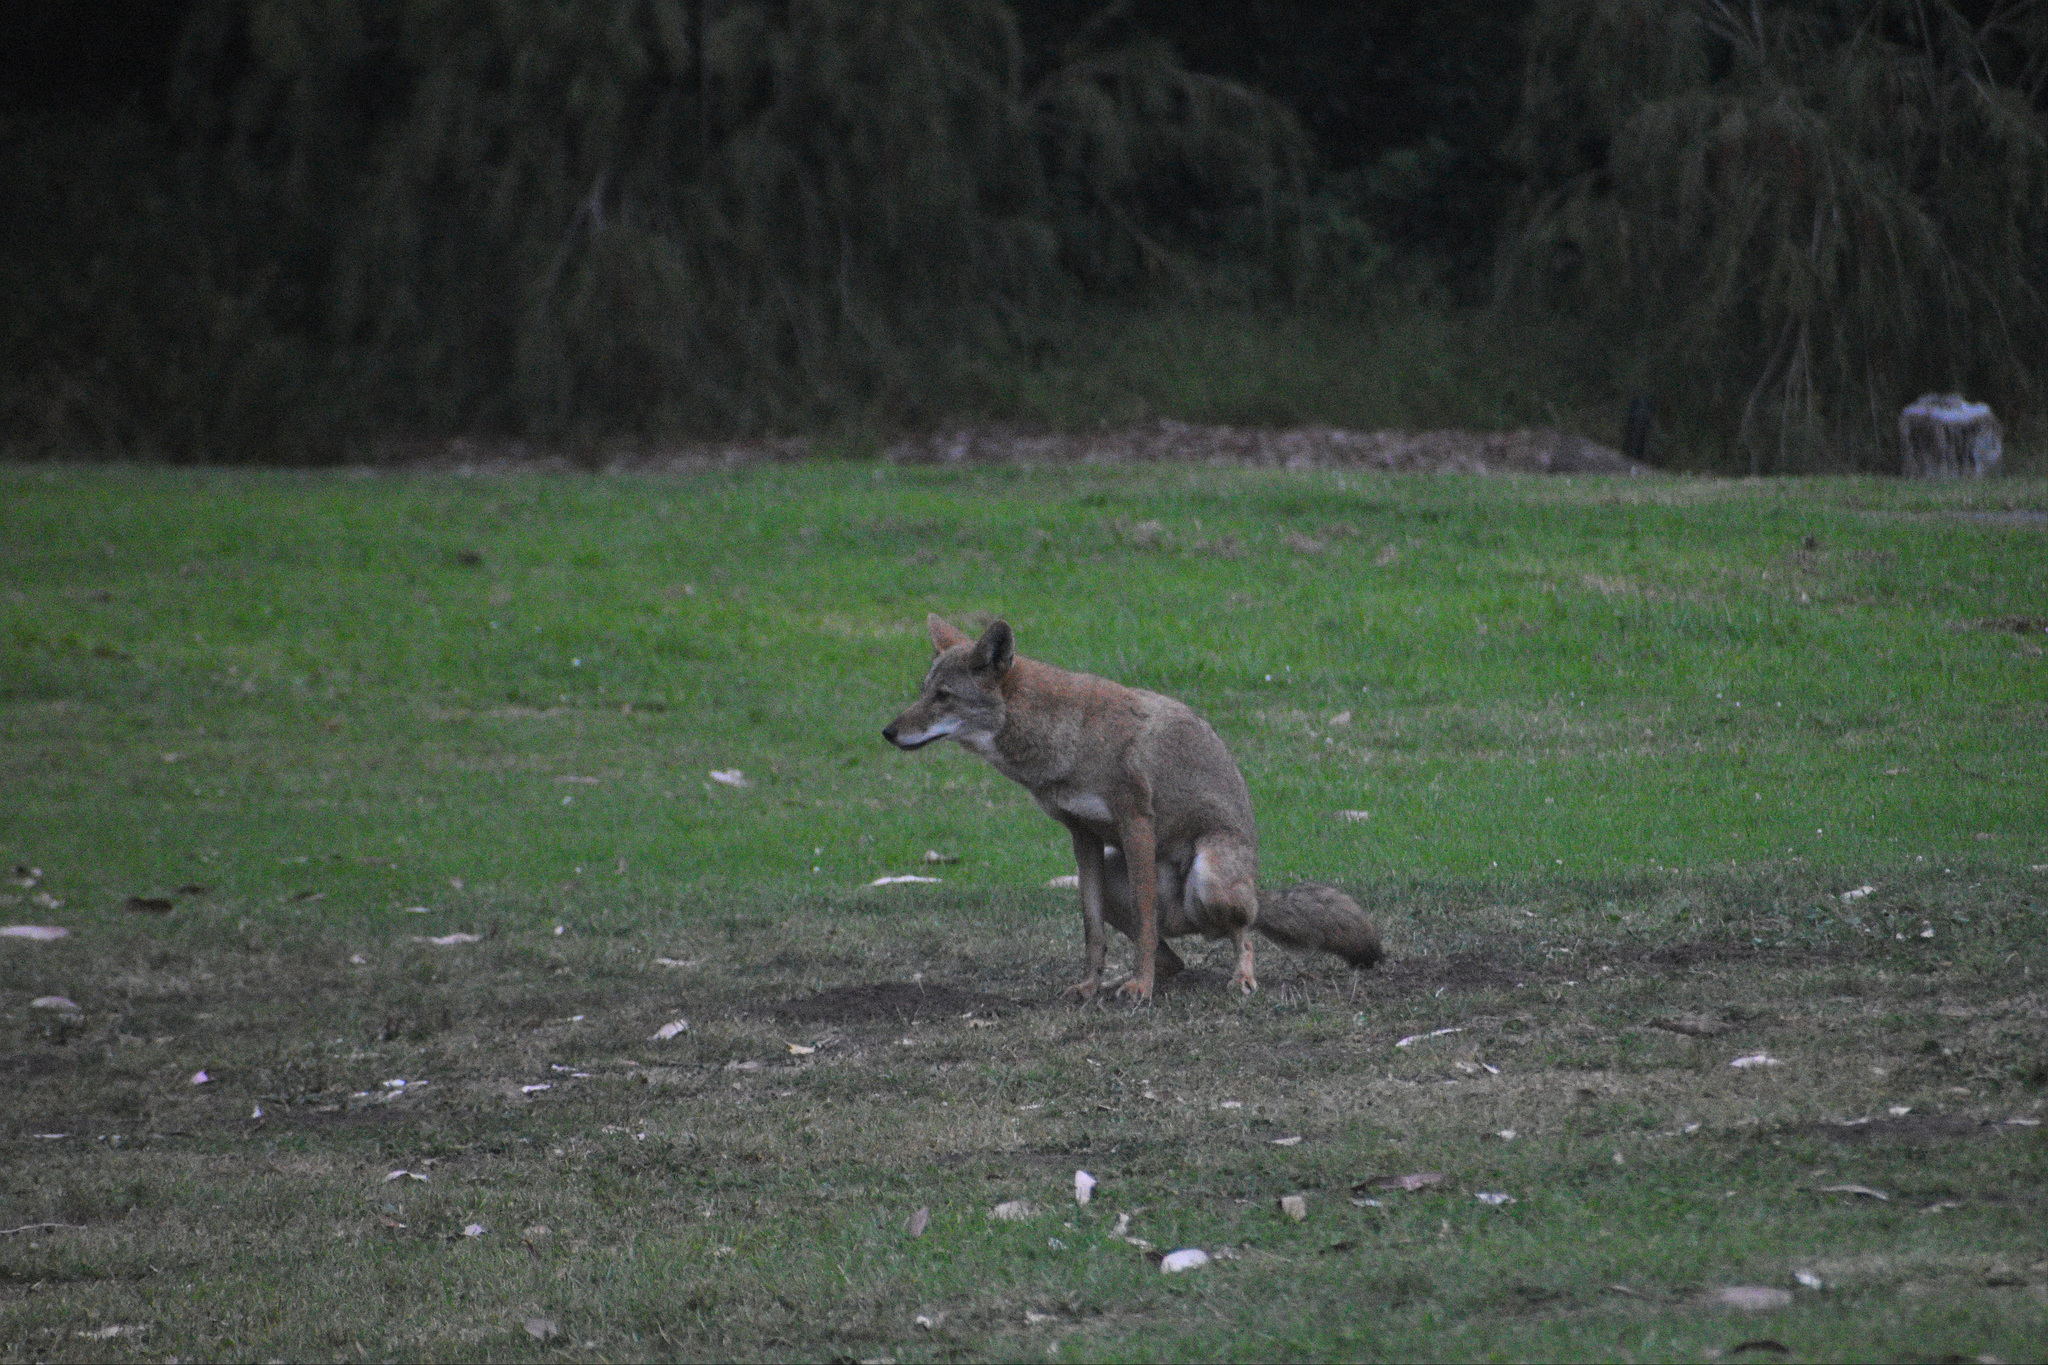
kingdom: Animalia
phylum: Chordata
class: Mammalia
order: Carnivora
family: Canidae
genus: Canis
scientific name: Canis latrans
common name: Coyote
